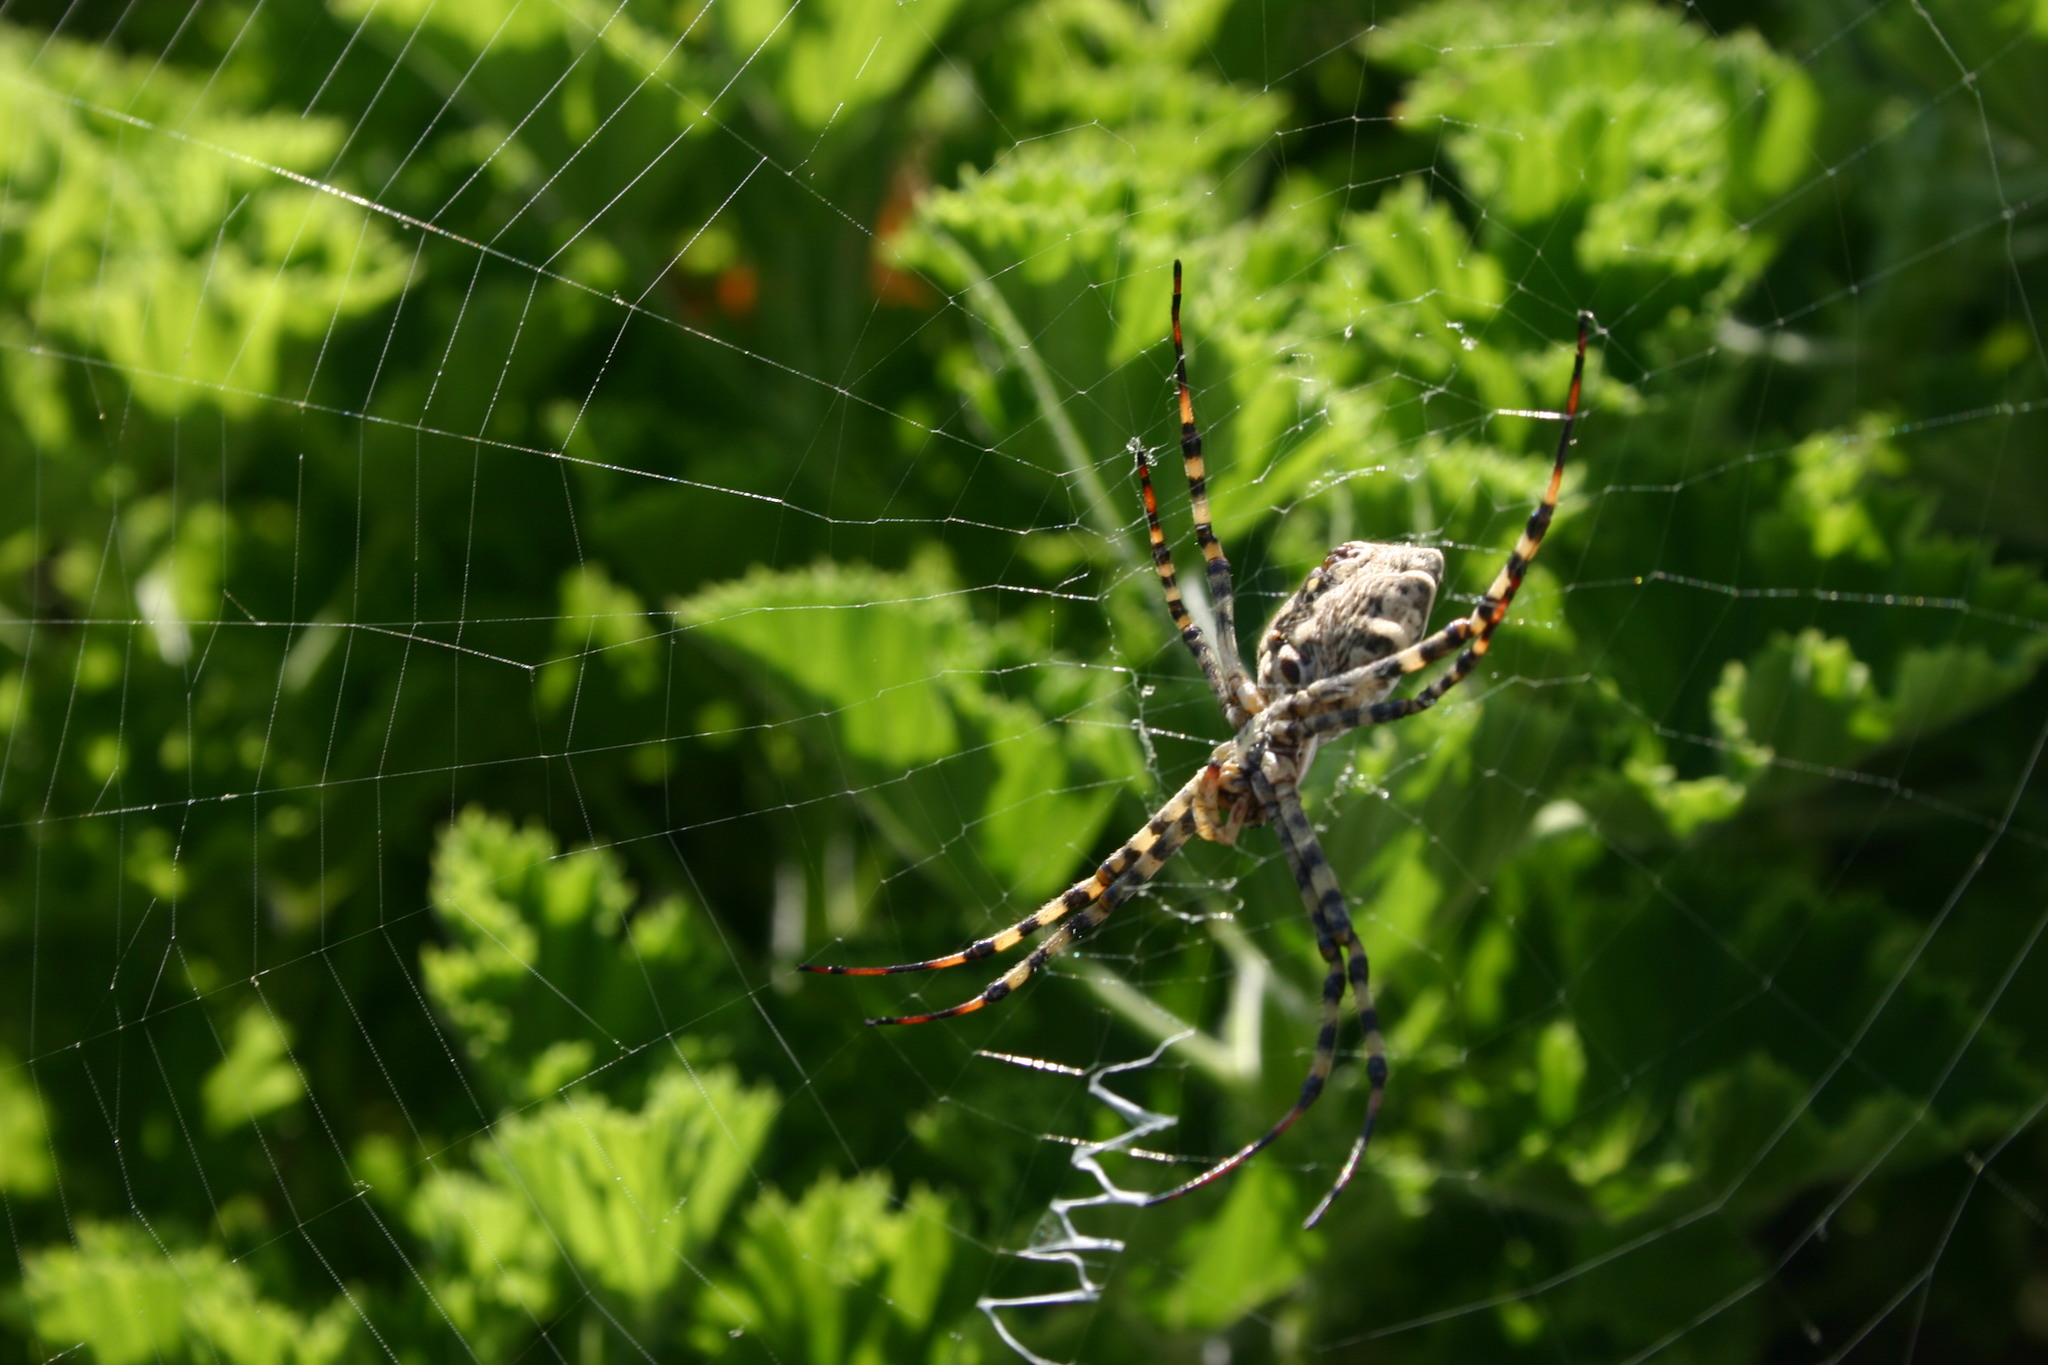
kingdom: Animalia
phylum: Arthropoda
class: Arachnida
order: Araneae
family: Araneidae
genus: Argiope
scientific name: Argiope lobata
